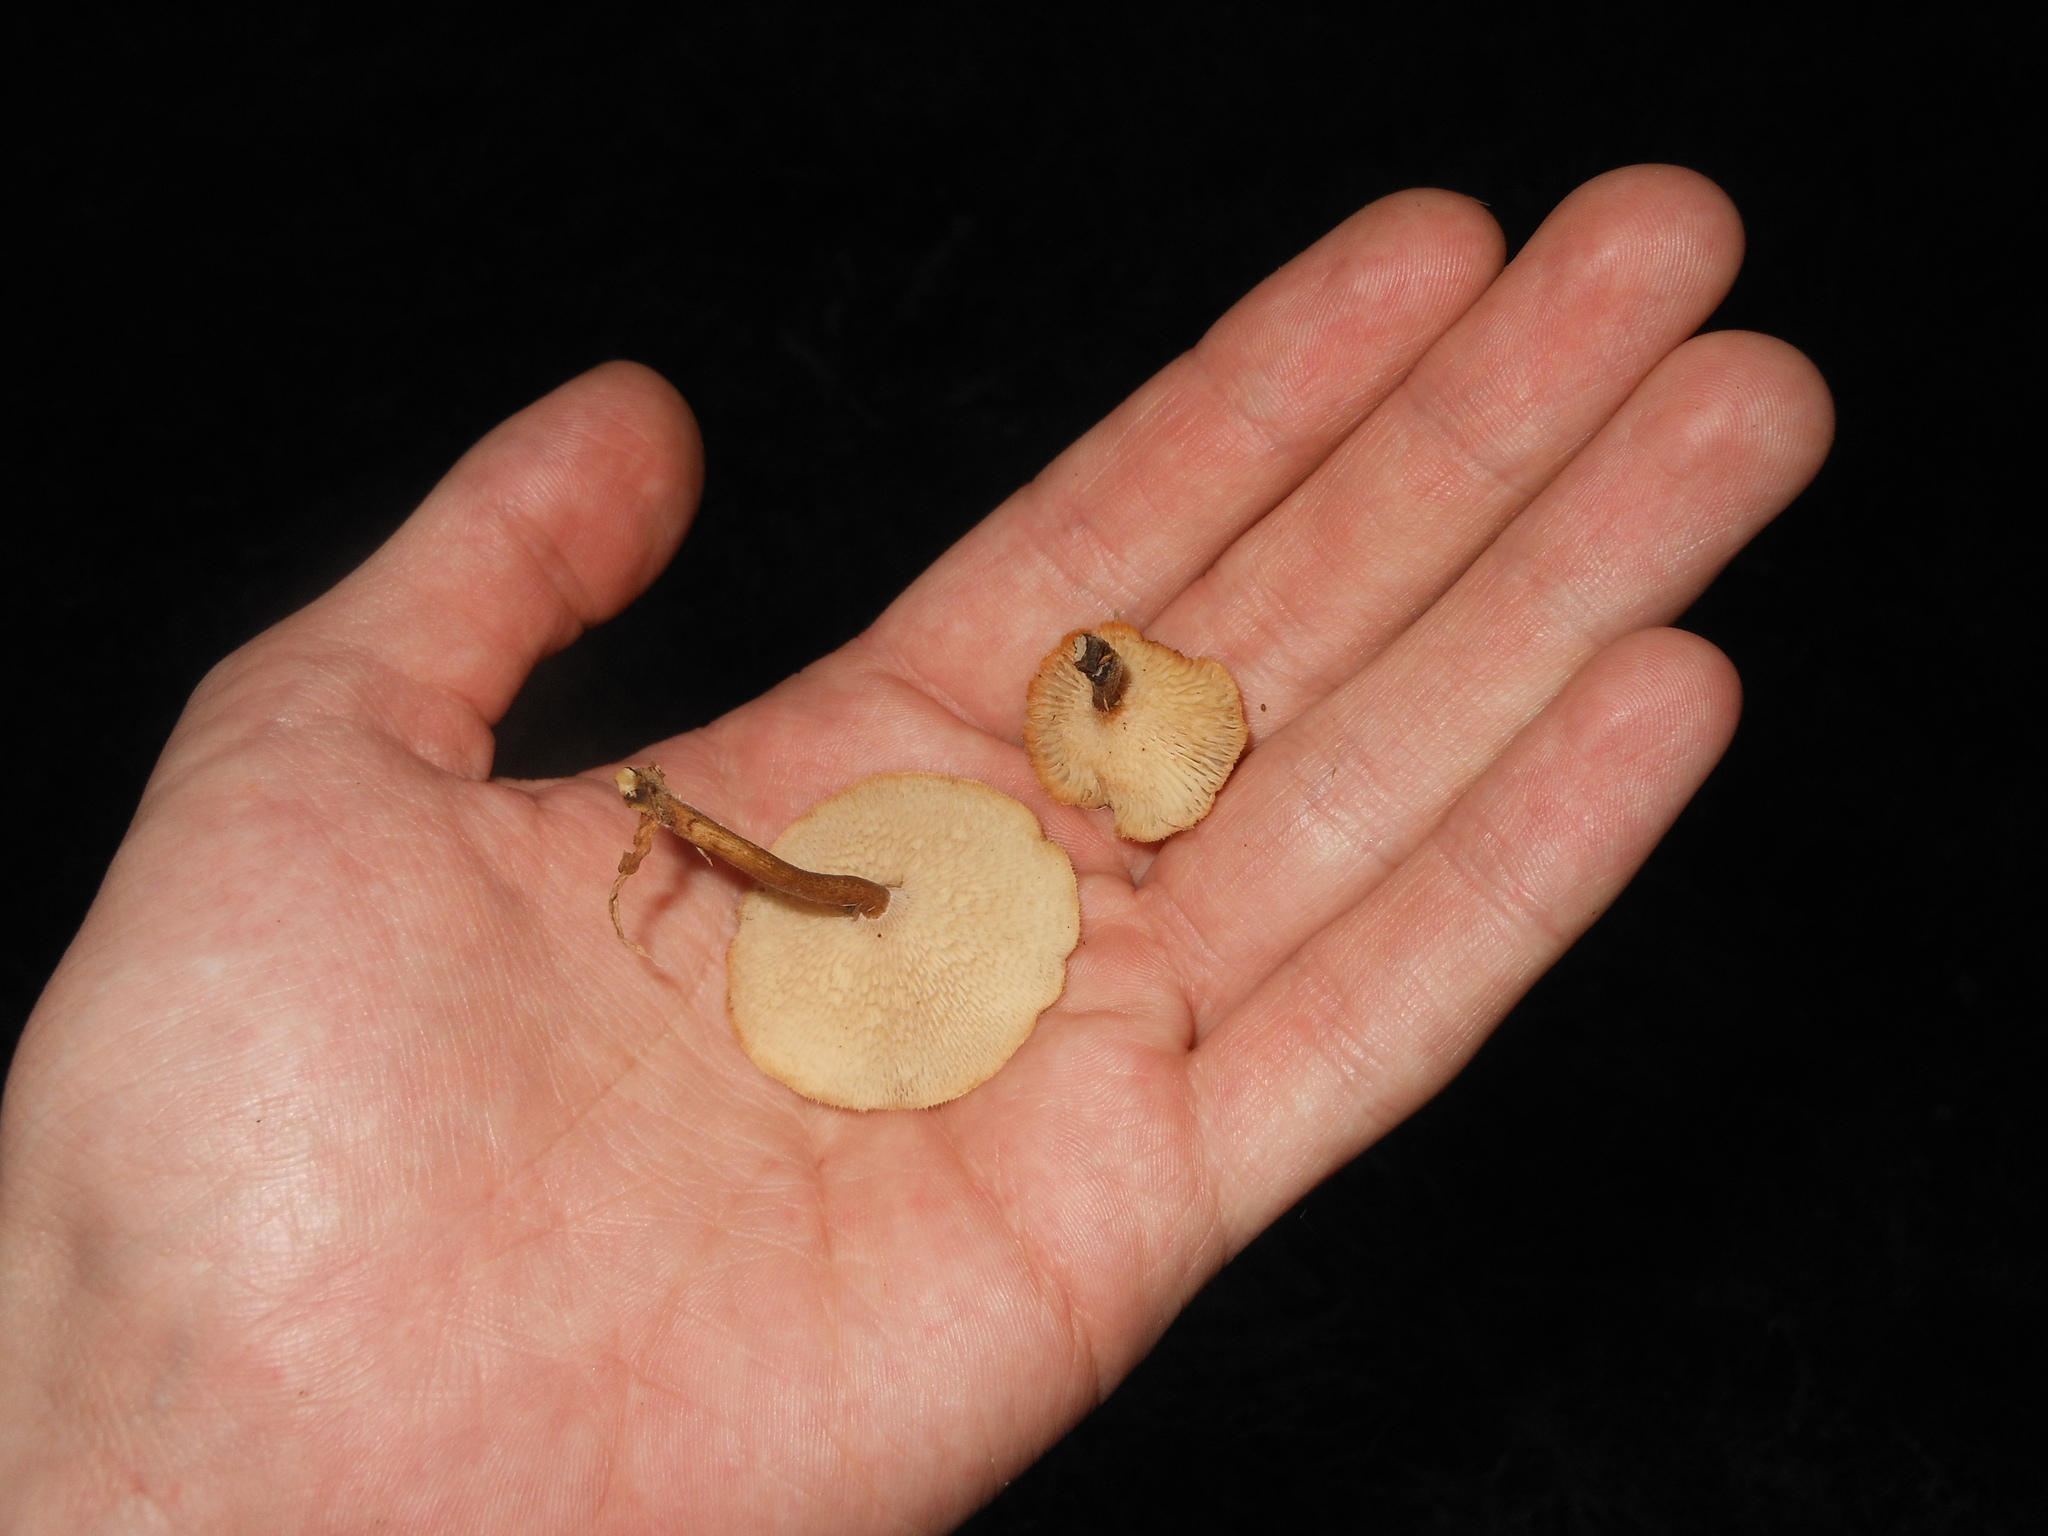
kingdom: Fungi
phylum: Basidiomycota
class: Agaricomycetes
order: Polyporales
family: Polyporaceae
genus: Lentinus
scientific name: Lentinus arcularius
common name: Spring polypore
